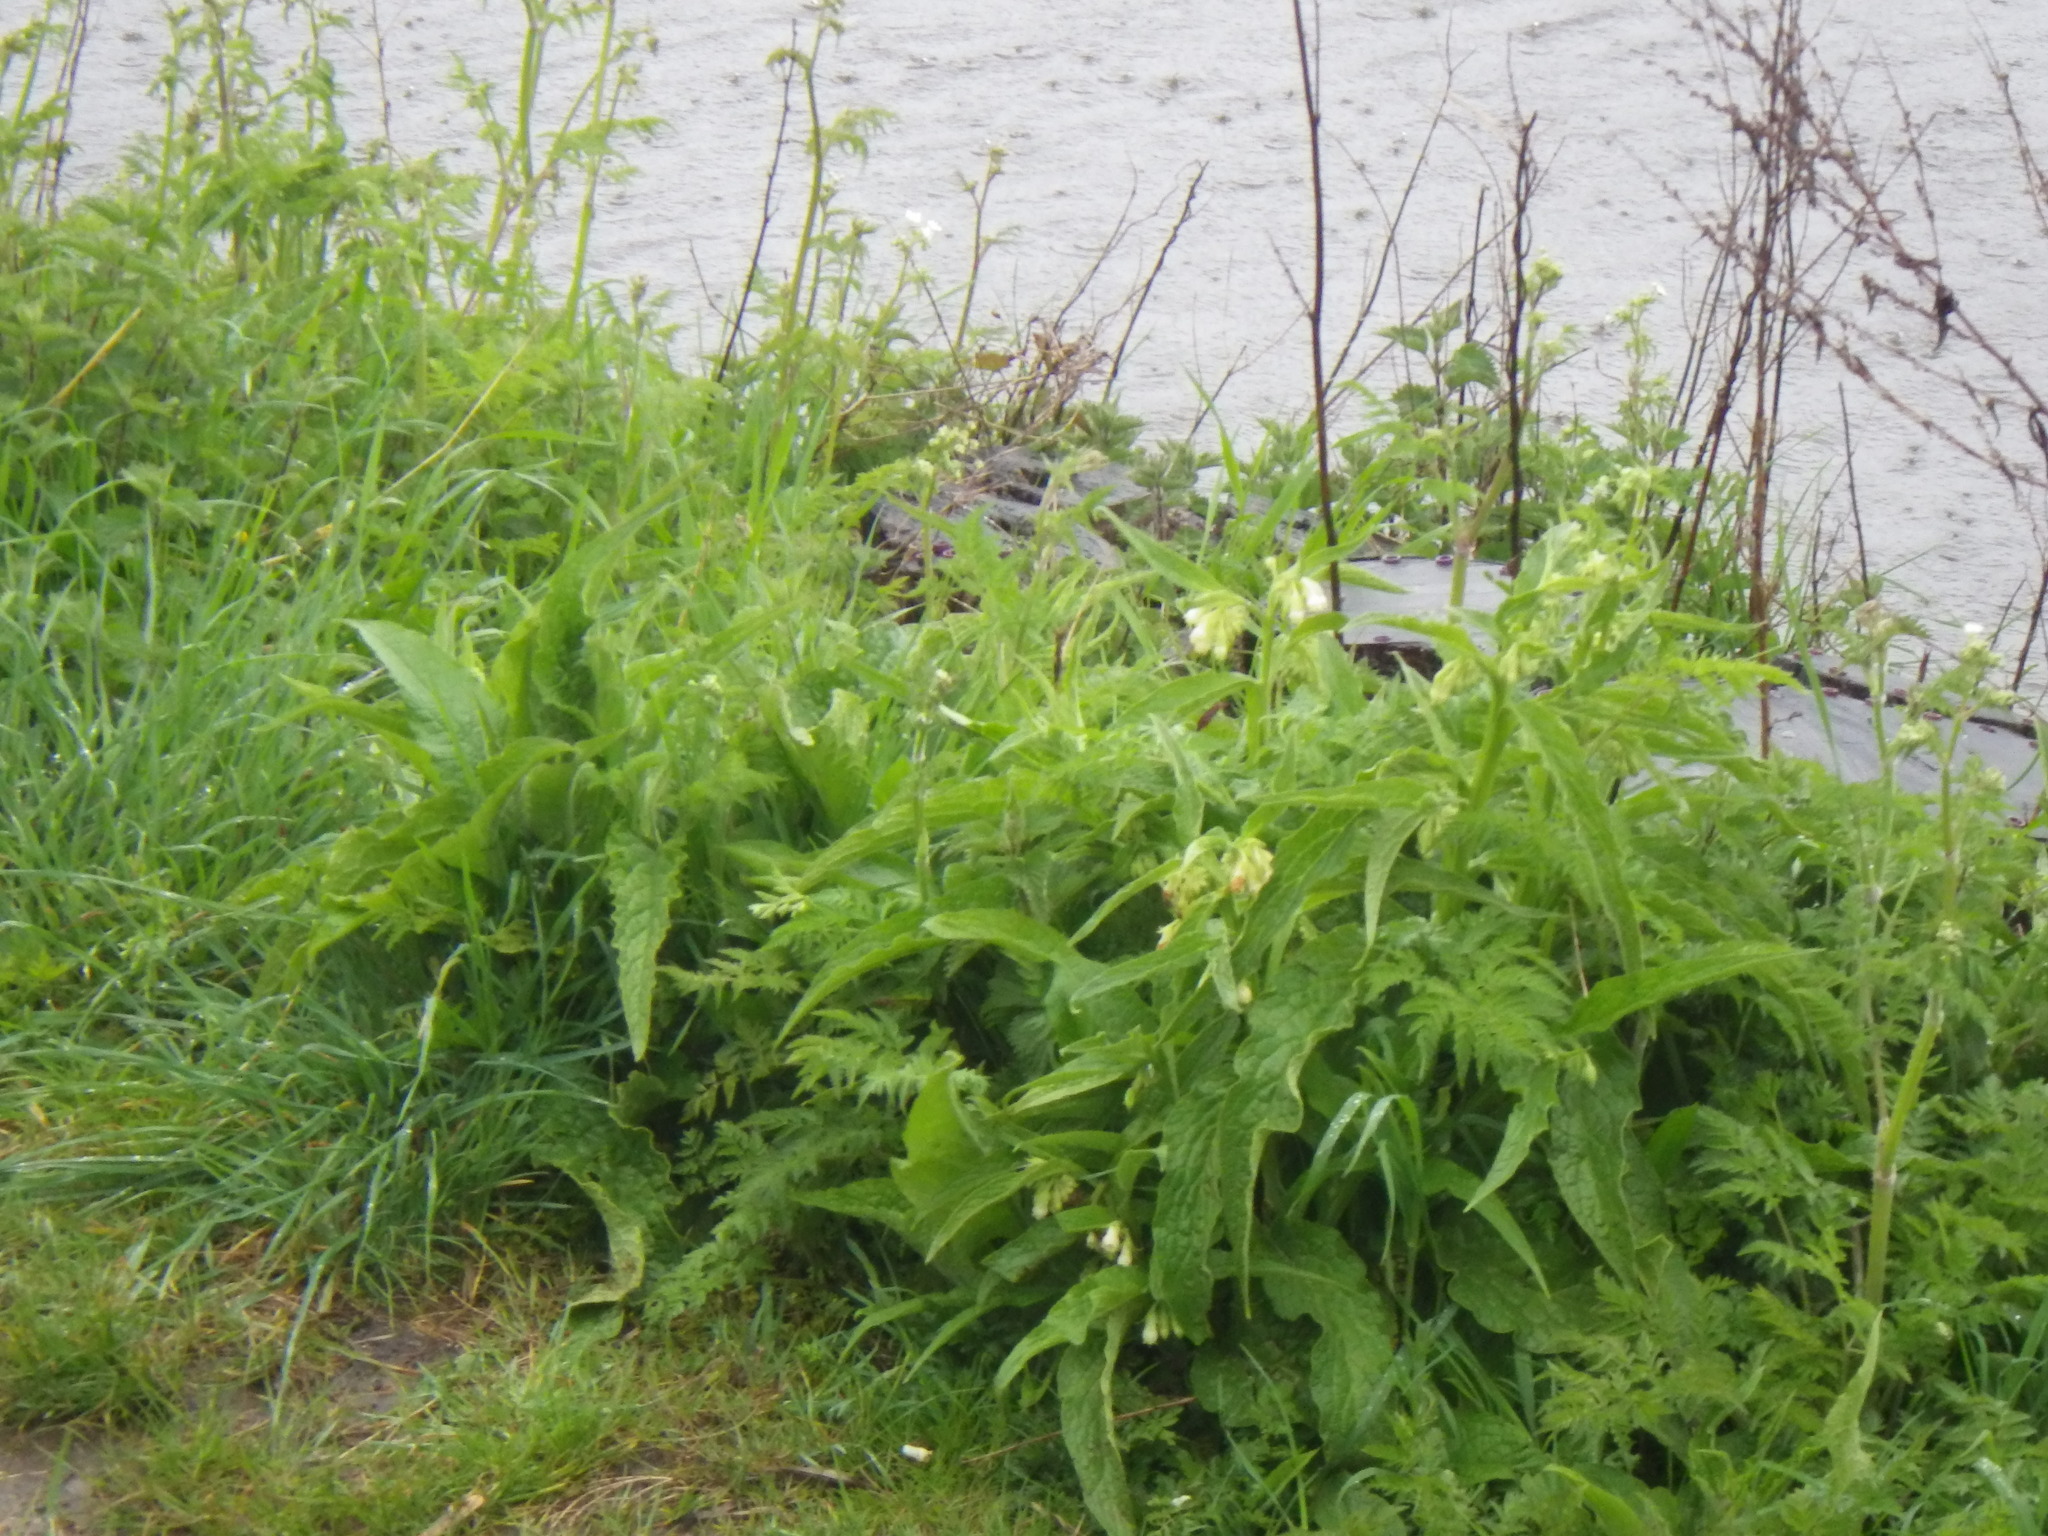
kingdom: Plantae
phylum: Tracheophyta
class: Magnoliopsida
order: Boraginales
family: Boraginaceae
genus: Symphytum
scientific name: Symphytum officinale
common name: Common comfrey
